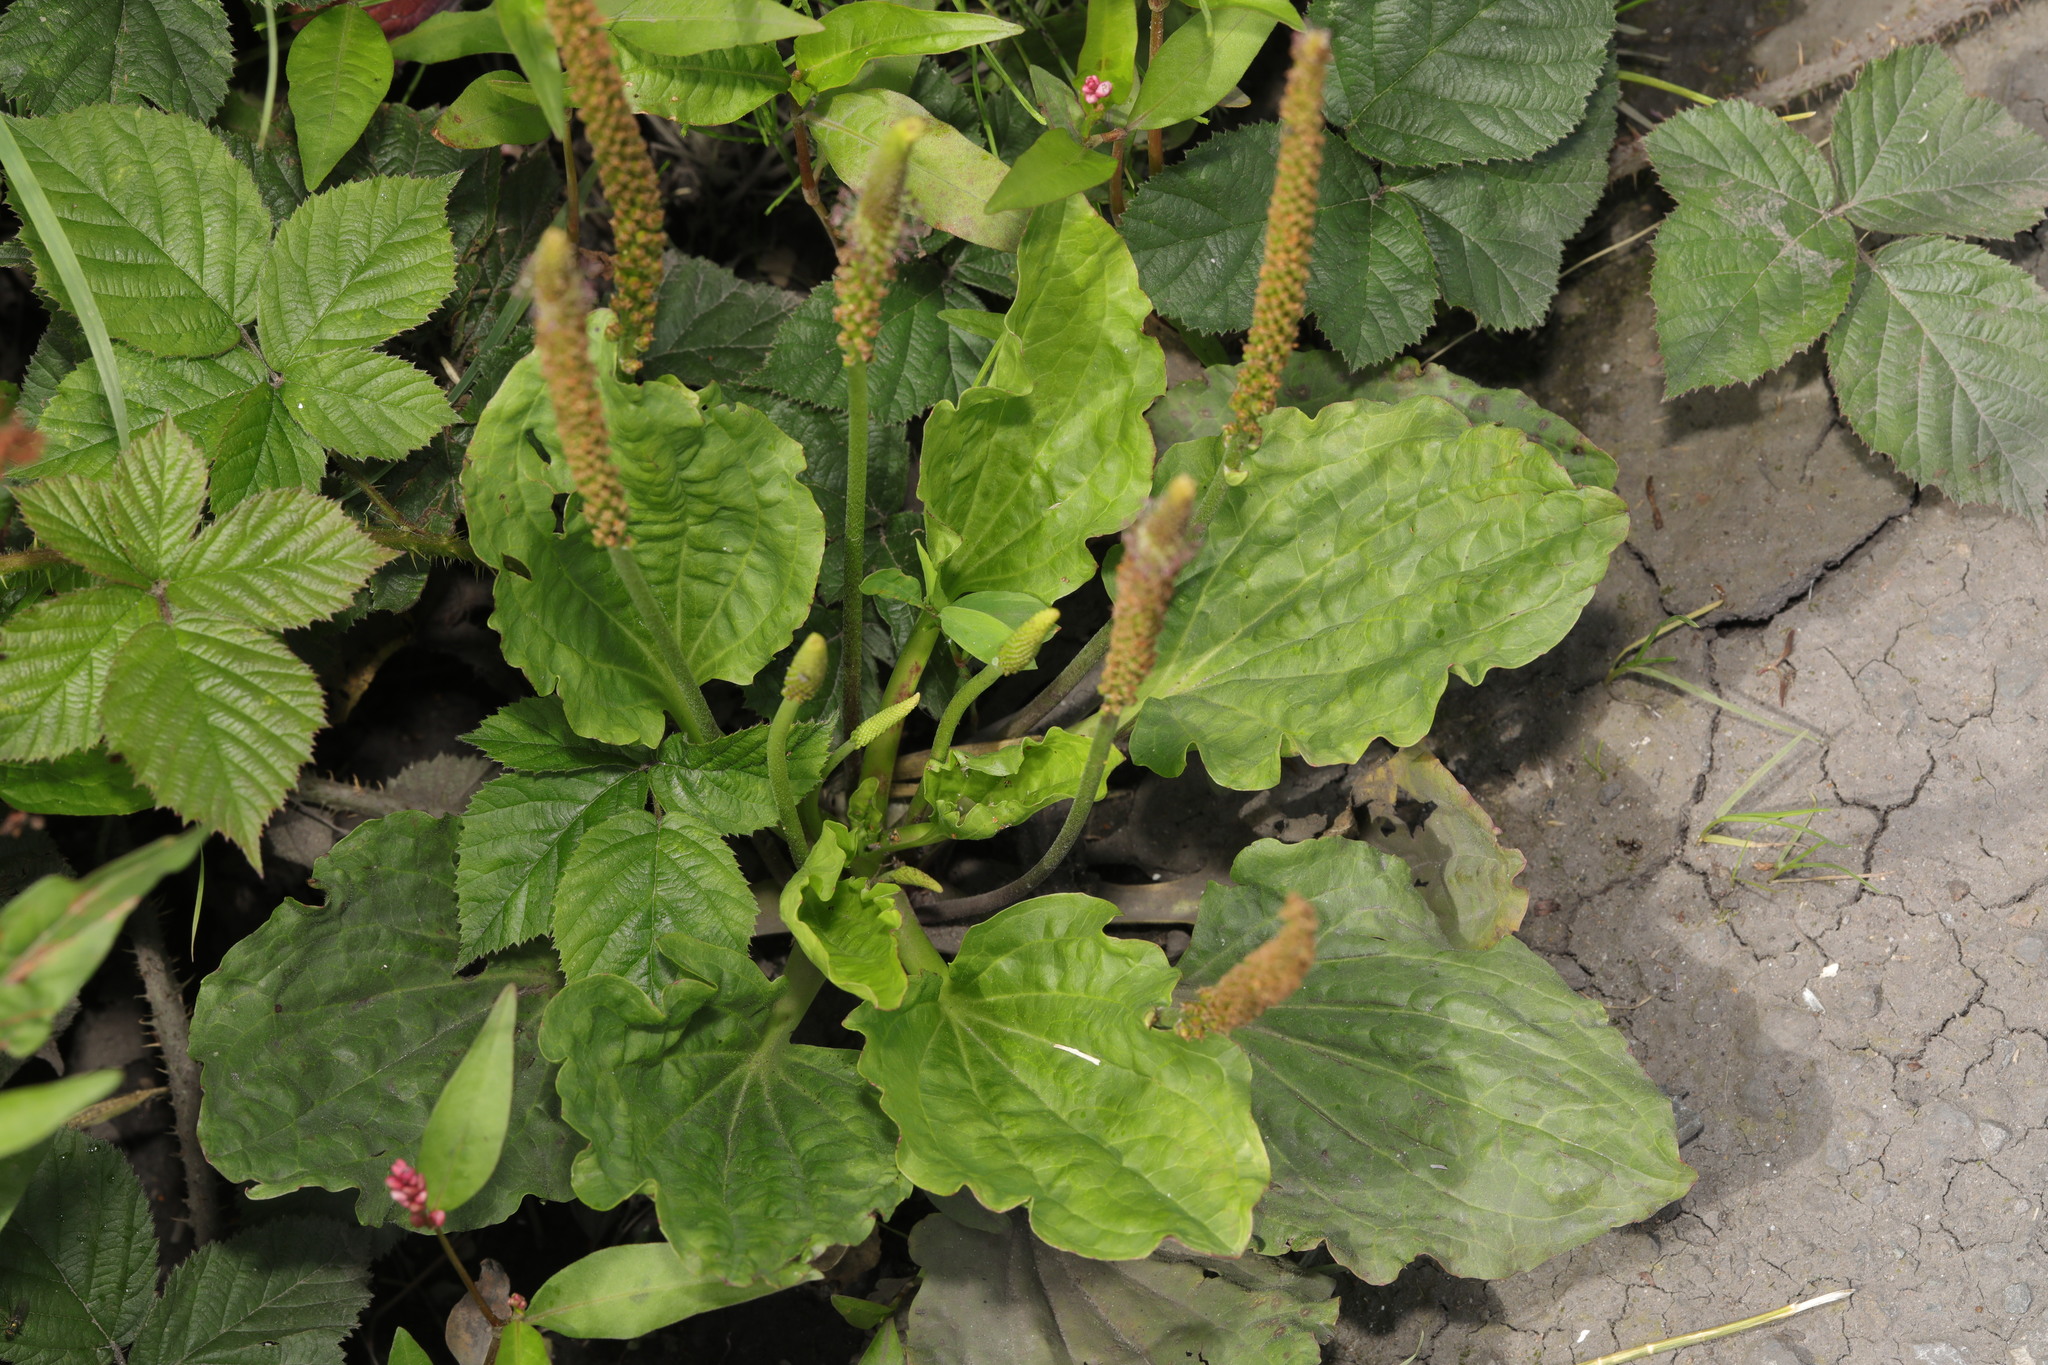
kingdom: Plantae
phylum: Tracheophyta
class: Magnoliopsida
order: Lamiales
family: Plantaginaceae
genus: Plantago
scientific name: Plantago major
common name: Common plantain
